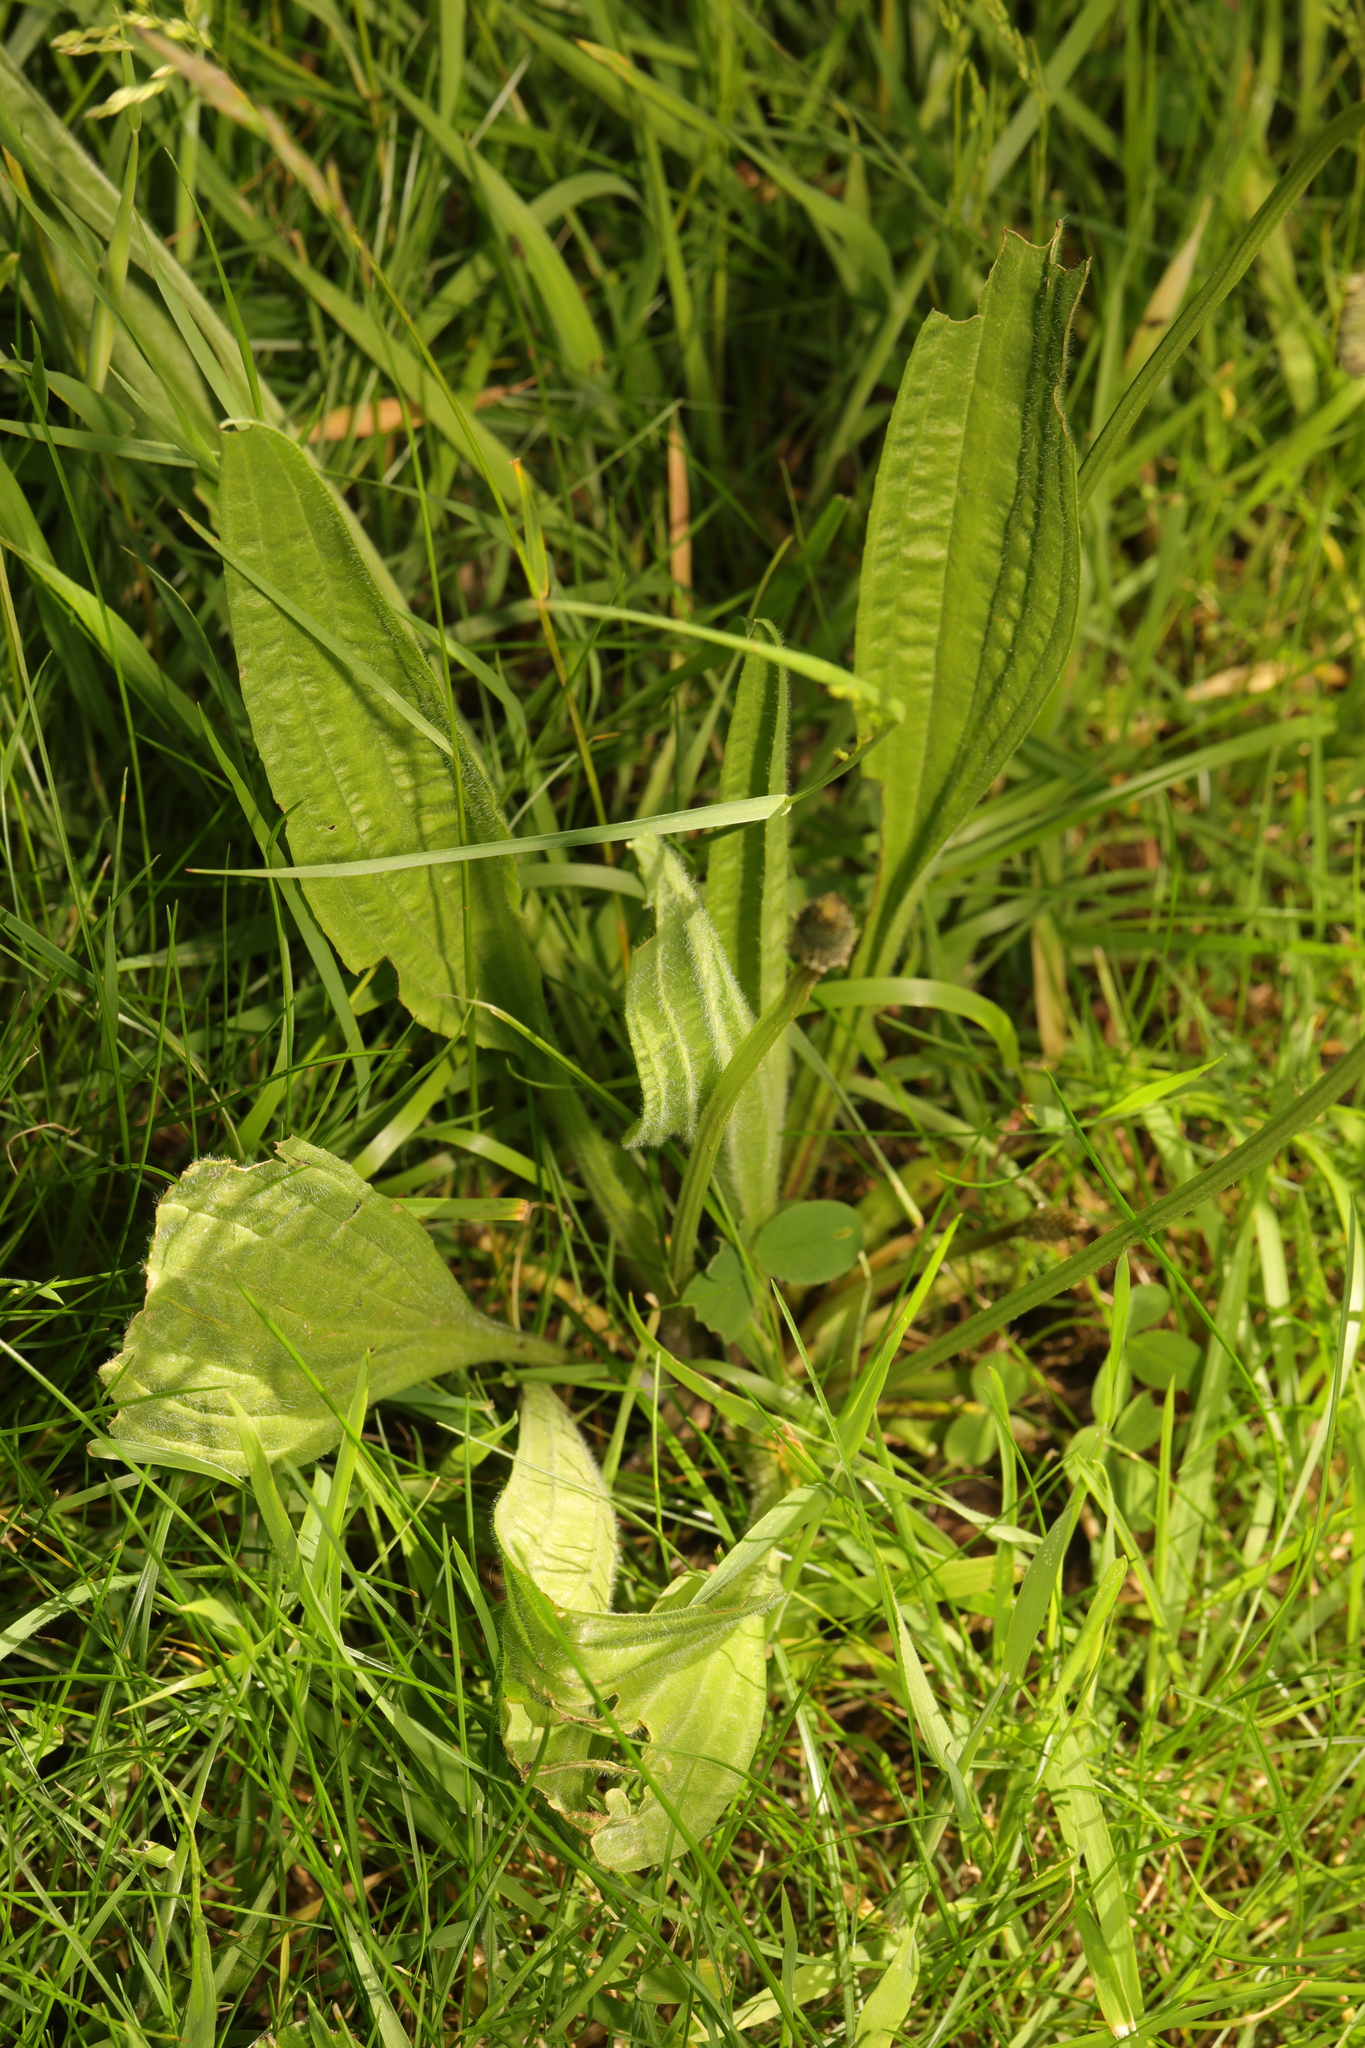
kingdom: Plantae
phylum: Tracheophyta
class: Magnoliopsida
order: Lamiales
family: Plantaginaceae
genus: Plantago
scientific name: Plantago lanceolata
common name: Ribwort plantain
